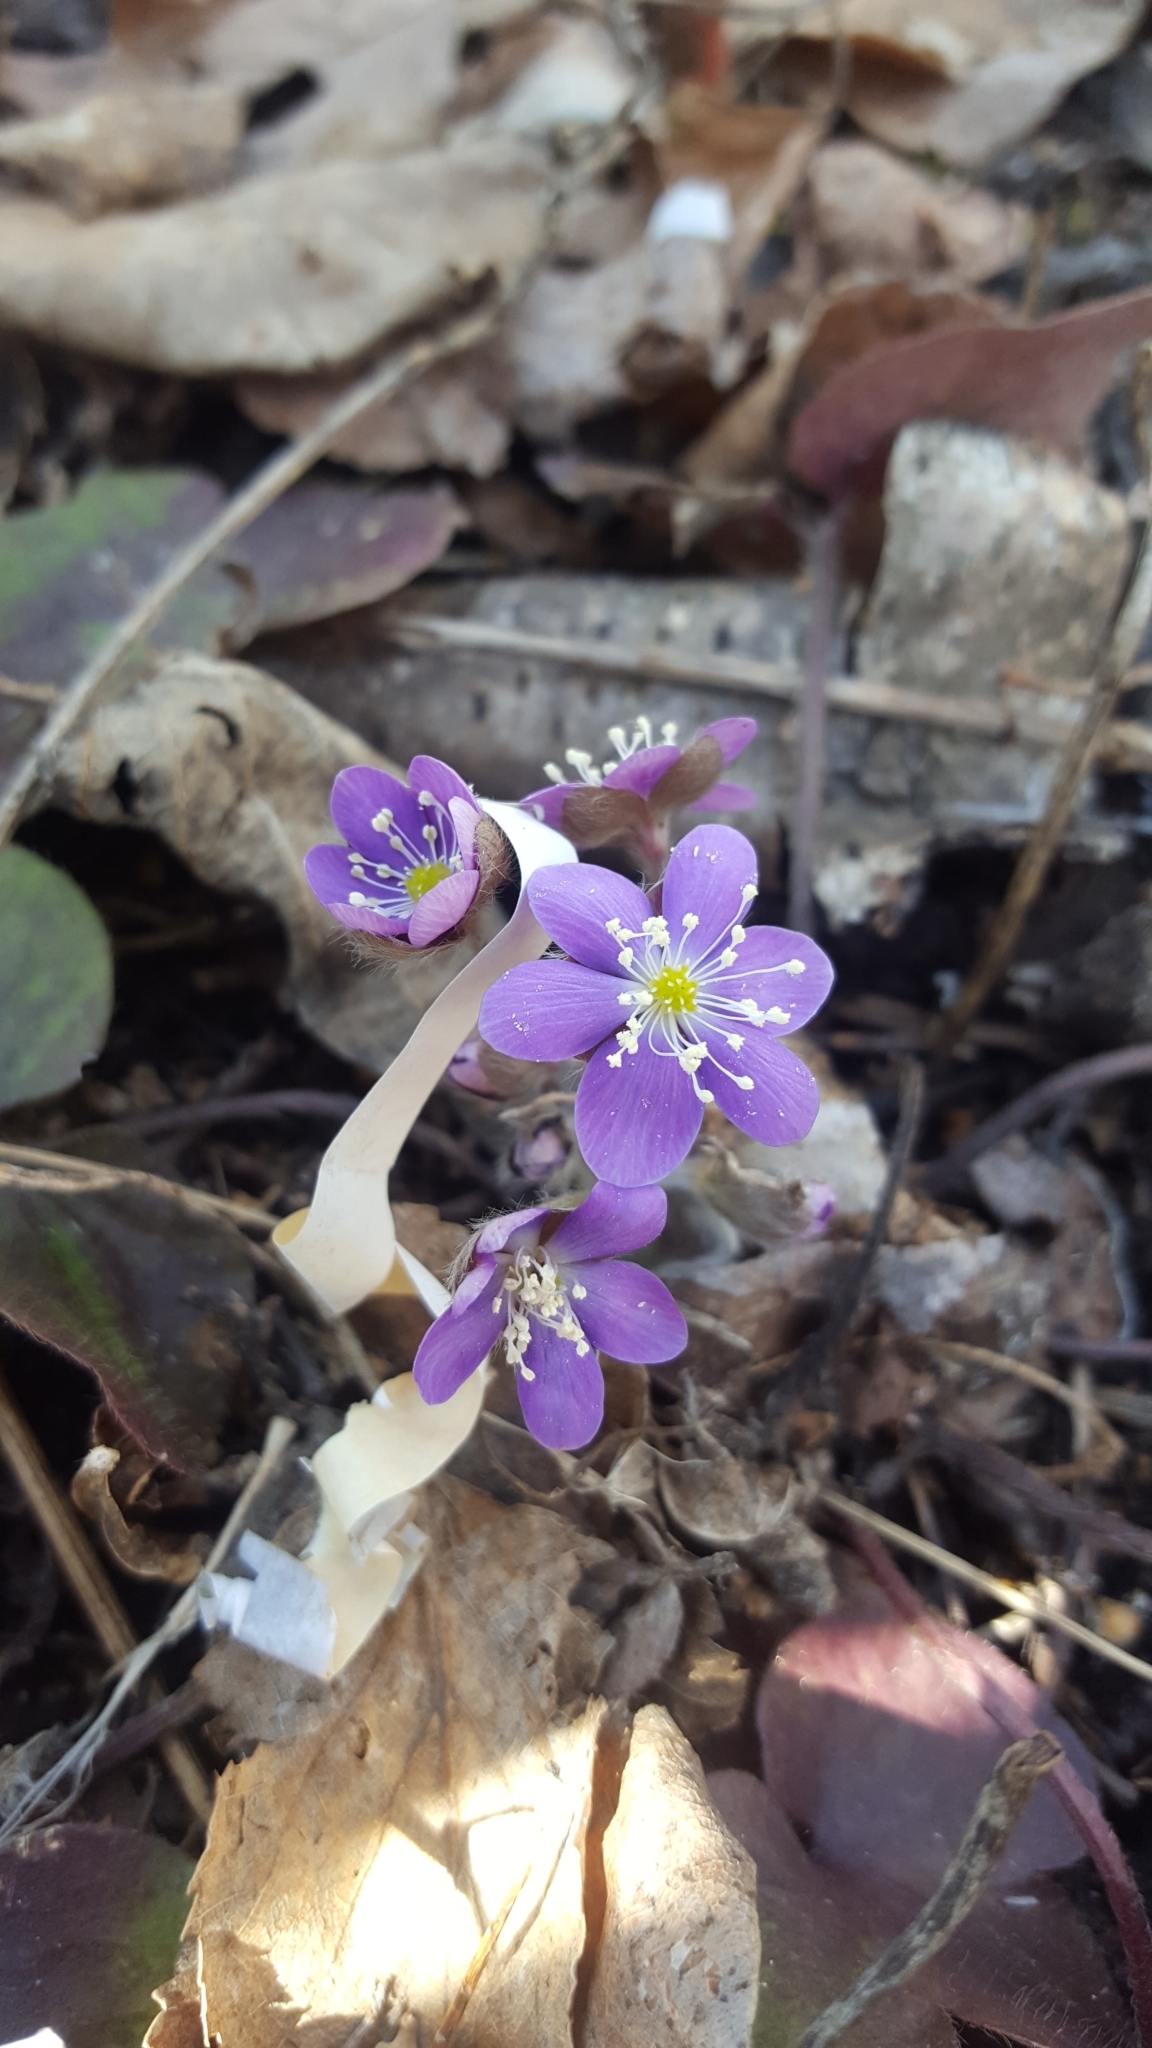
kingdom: Plantae
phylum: Tracheophyta
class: Magnoliopsida
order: Ranunculales
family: Ranunculaceae
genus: Hepatica
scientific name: Hepatica americana
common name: American hepatica
